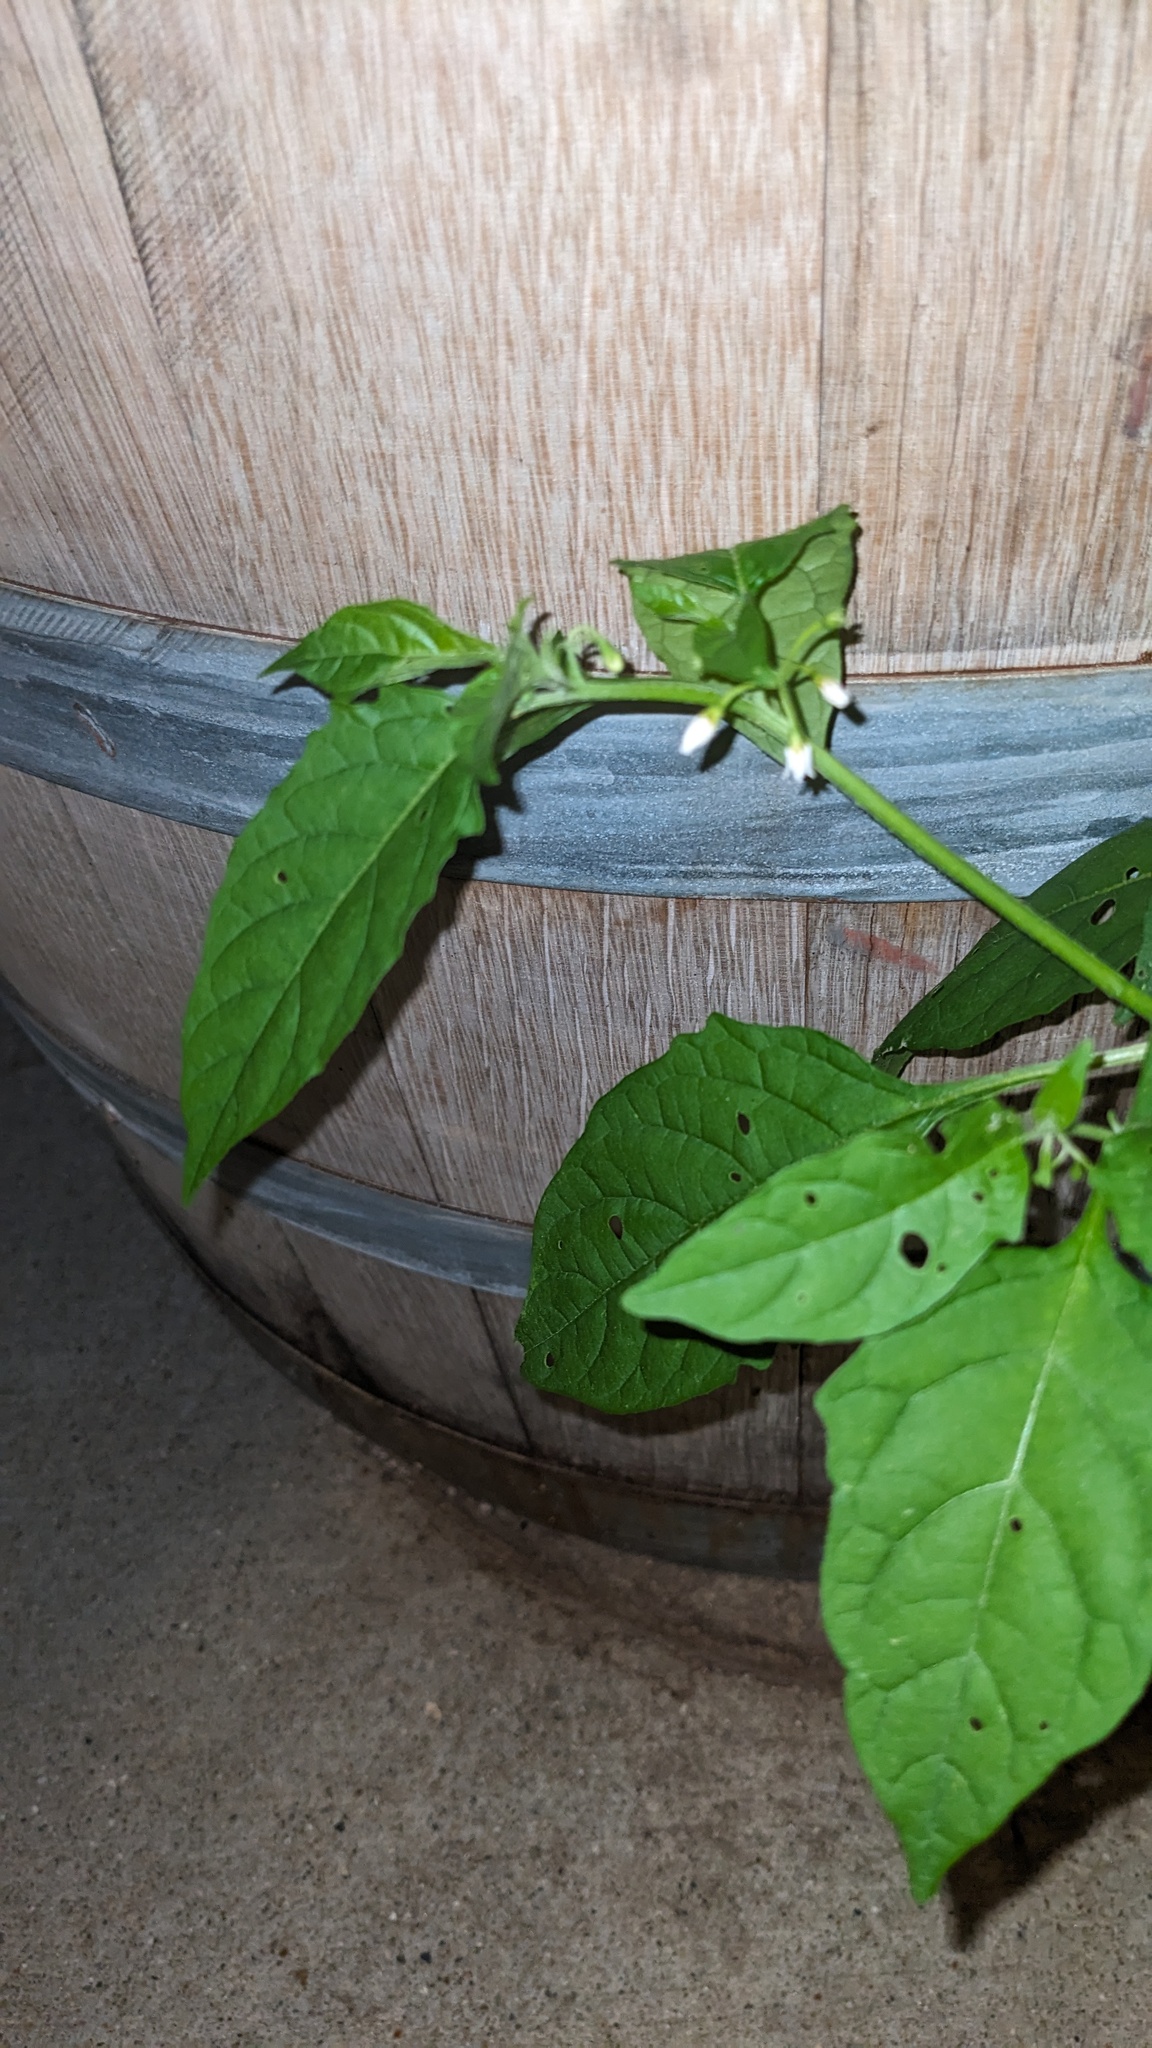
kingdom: Plantae
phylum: Tracheophyta
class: Magnoliopsida
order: Solanales
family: Solanaceae
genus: Solanum
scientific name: Solanum emulans
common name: Eastern black nightshade
